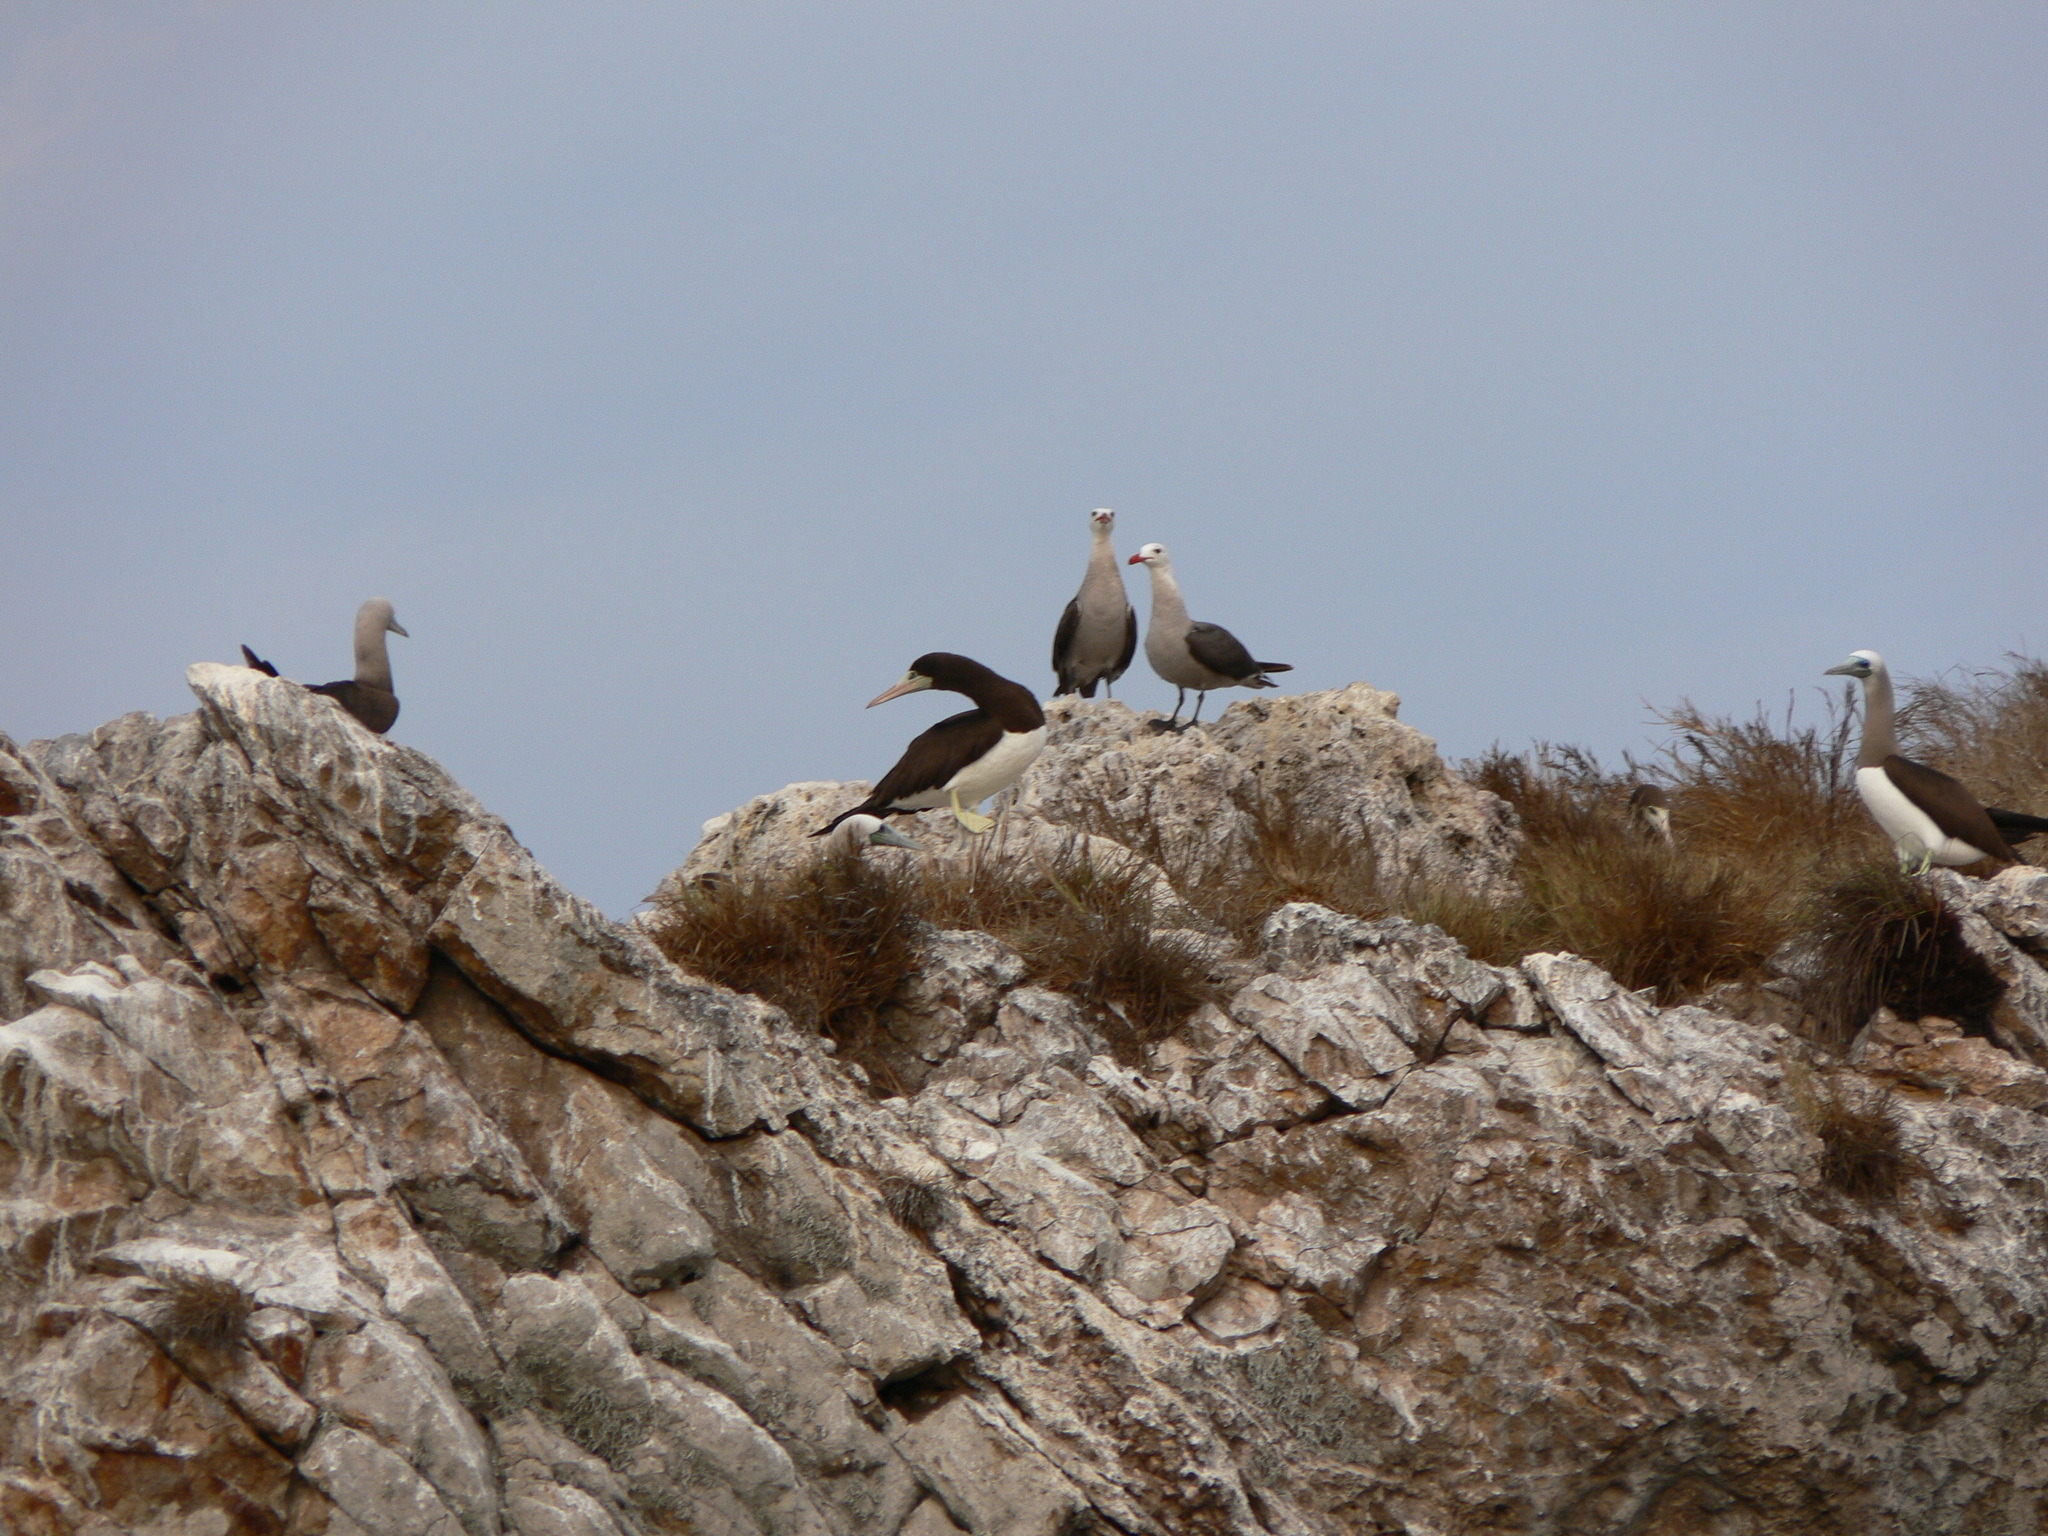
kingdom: Animalia
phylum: Chordata
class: Aves
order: Suliformes
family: Sulidae
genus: Sula
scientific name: Sula leucogaster
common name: Brown booby
